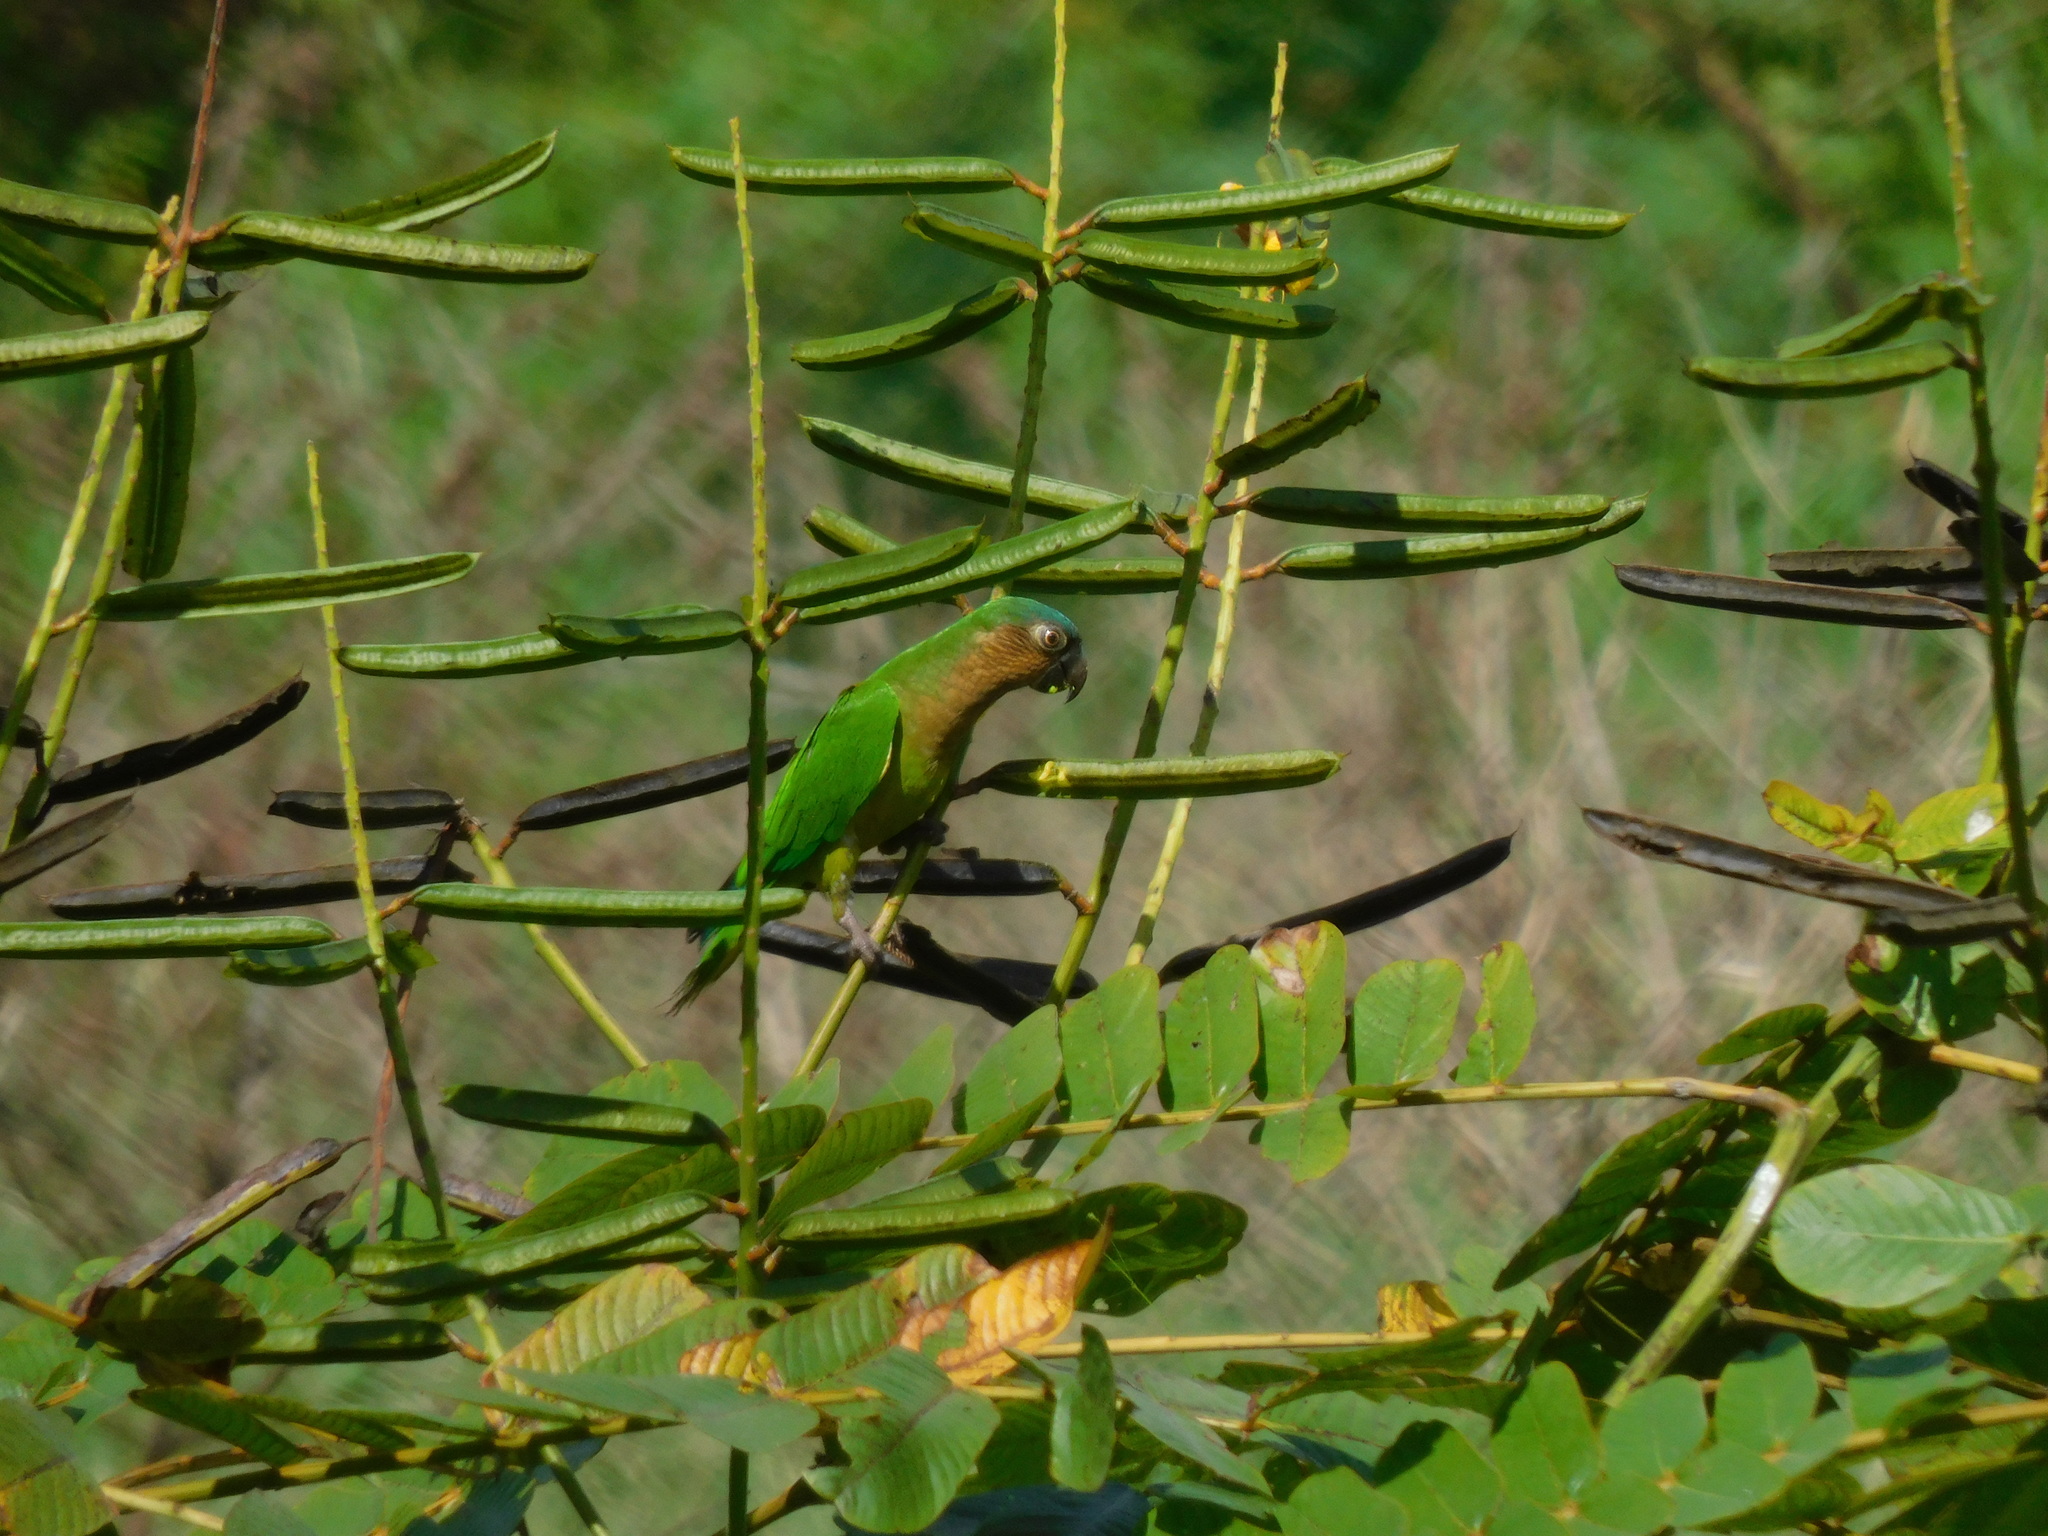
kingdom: Animalia
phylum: Chordata
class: Aves
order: Psittaciformes
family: Psittacidae
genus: Aratinga
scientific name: Aratinga pertinax
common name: Brown-throated parakeet
